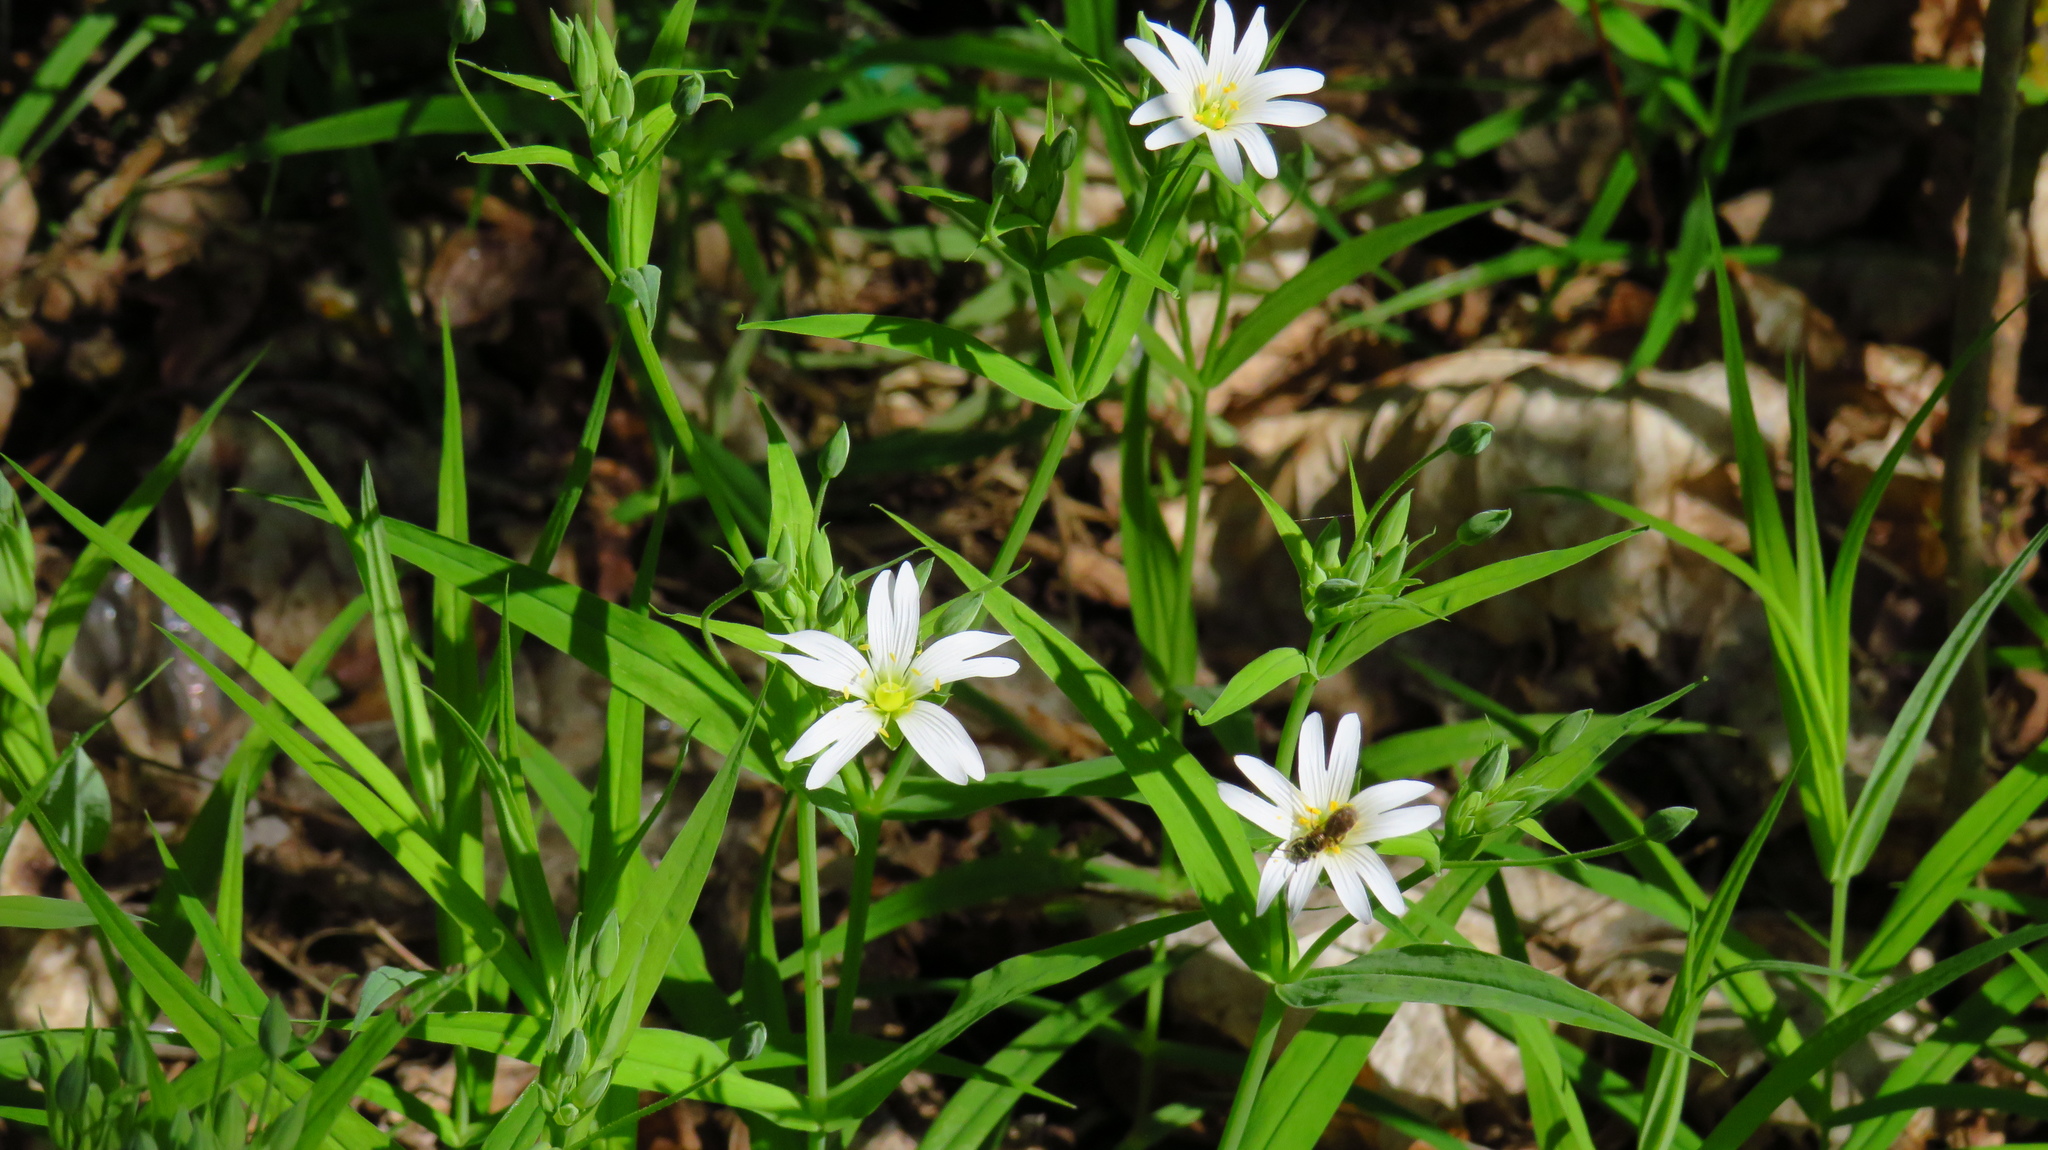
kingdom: Plantae
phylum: Tracheophyta
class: Magnoliopsida
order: Caryophyllales
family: Caryophyllaceae
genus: Rabelera
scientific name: Rabelera holostea
